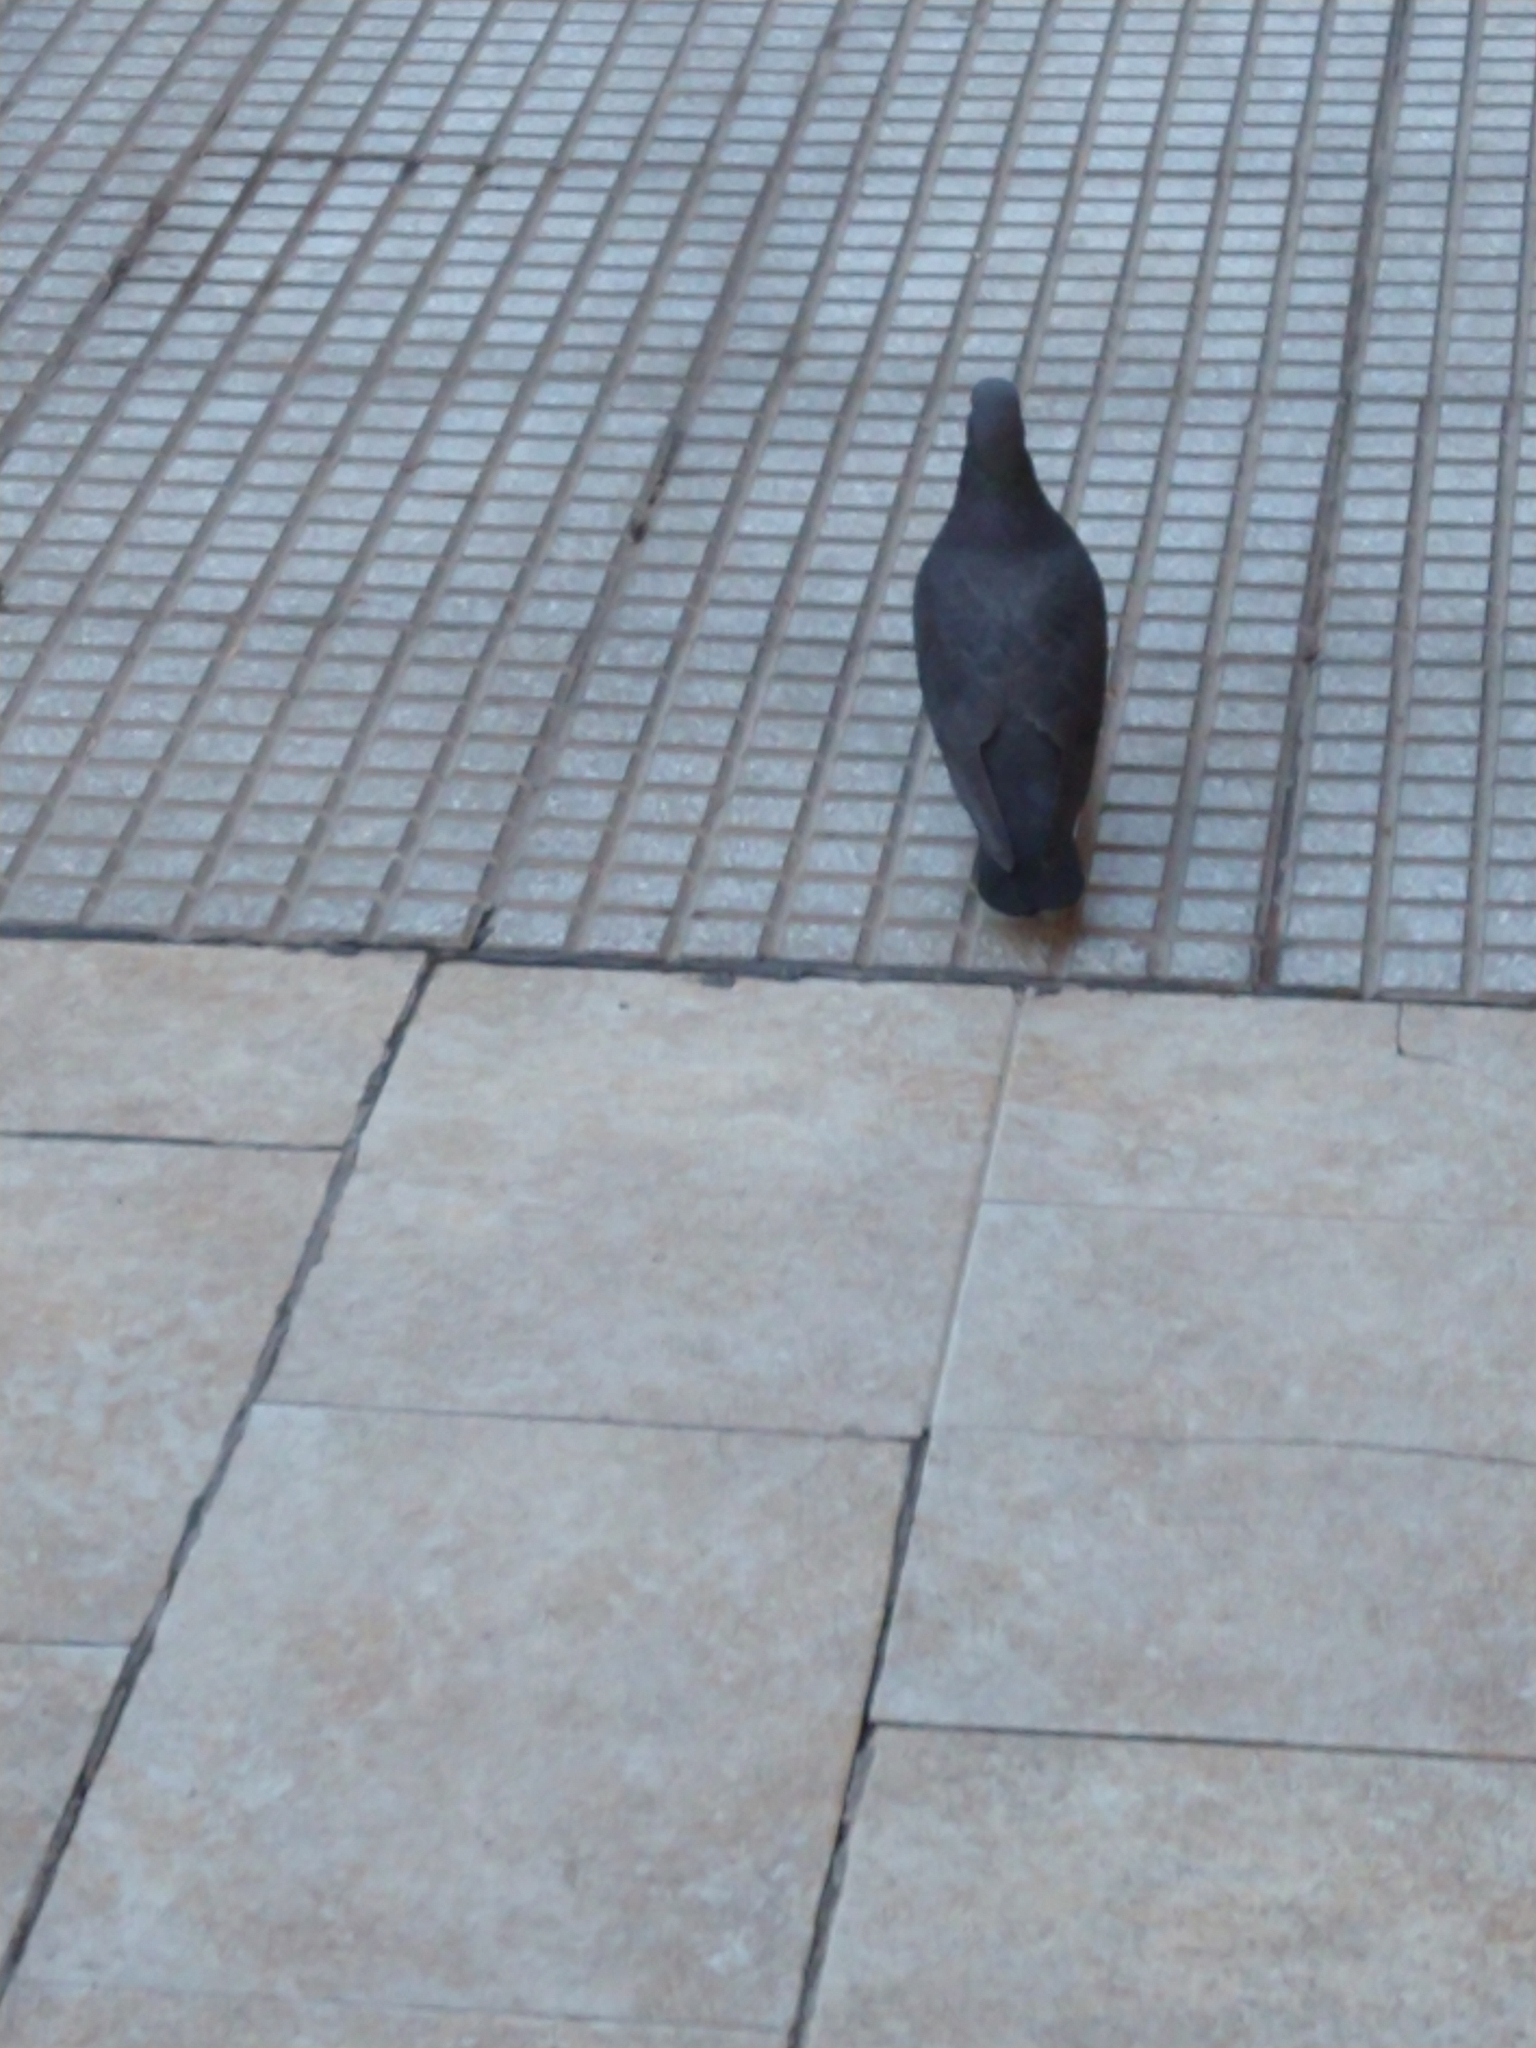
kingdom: Animalia
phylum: Chordata
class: Aves
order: Columbiformes
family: Columbidae
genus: Columba
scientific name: Columba livia
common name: Rock pigeon
